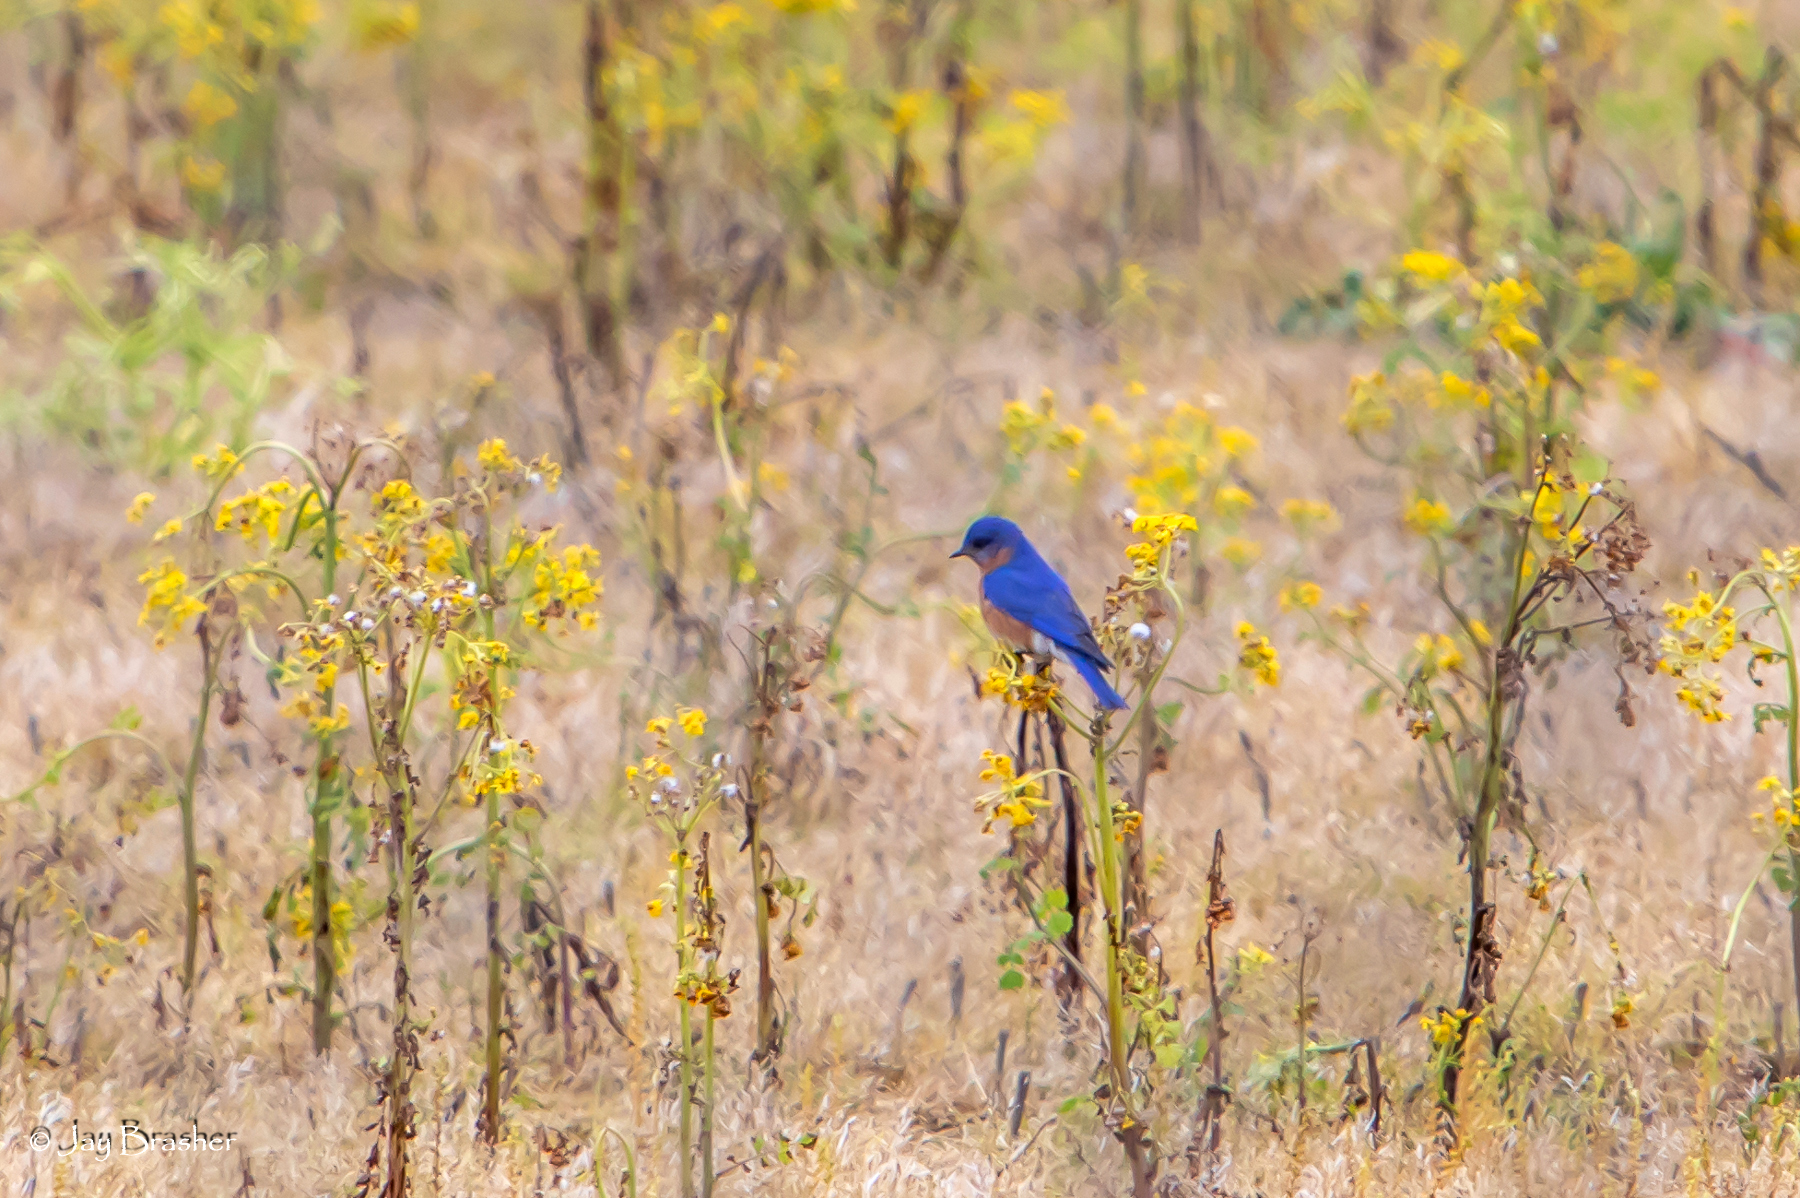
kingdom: Animalia
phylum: Chordata
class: Aves
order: Passeriformes
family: Turdidae
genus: Sialia
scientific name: Sialia sialis
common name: Eastern bluebird
